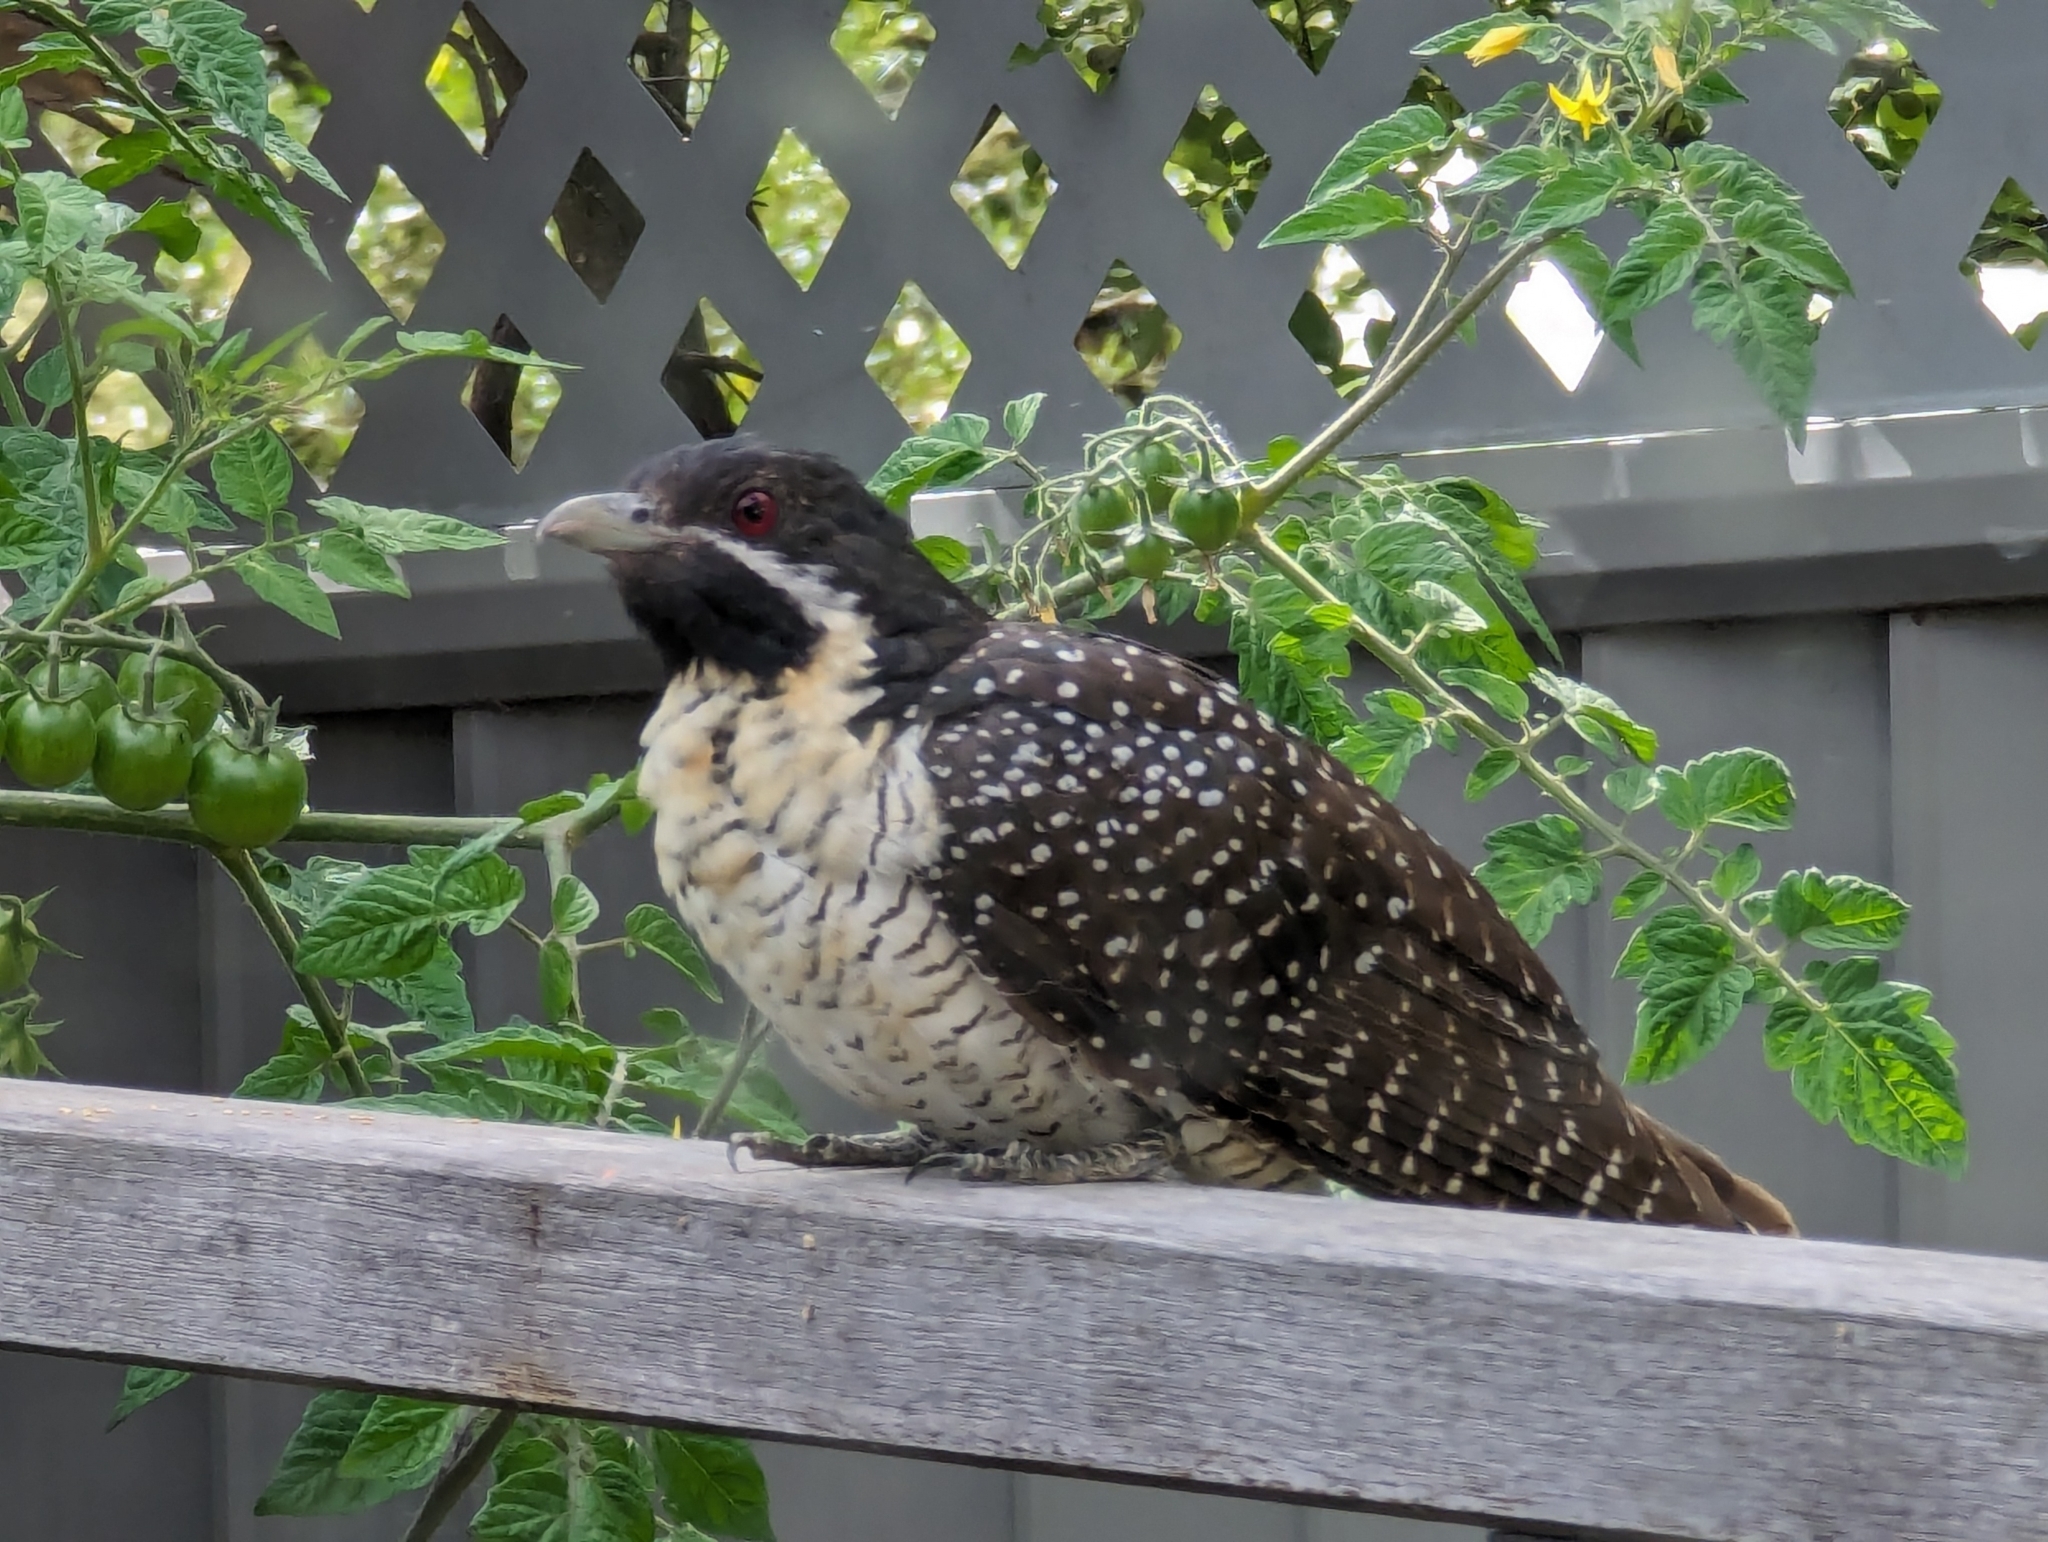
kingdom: Animalia
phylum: Chordata
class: Aves
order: Cuculiformes
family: Cuculidae
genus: Eudynamys
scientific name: Eudynamys orientalis
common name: Pacific koel
